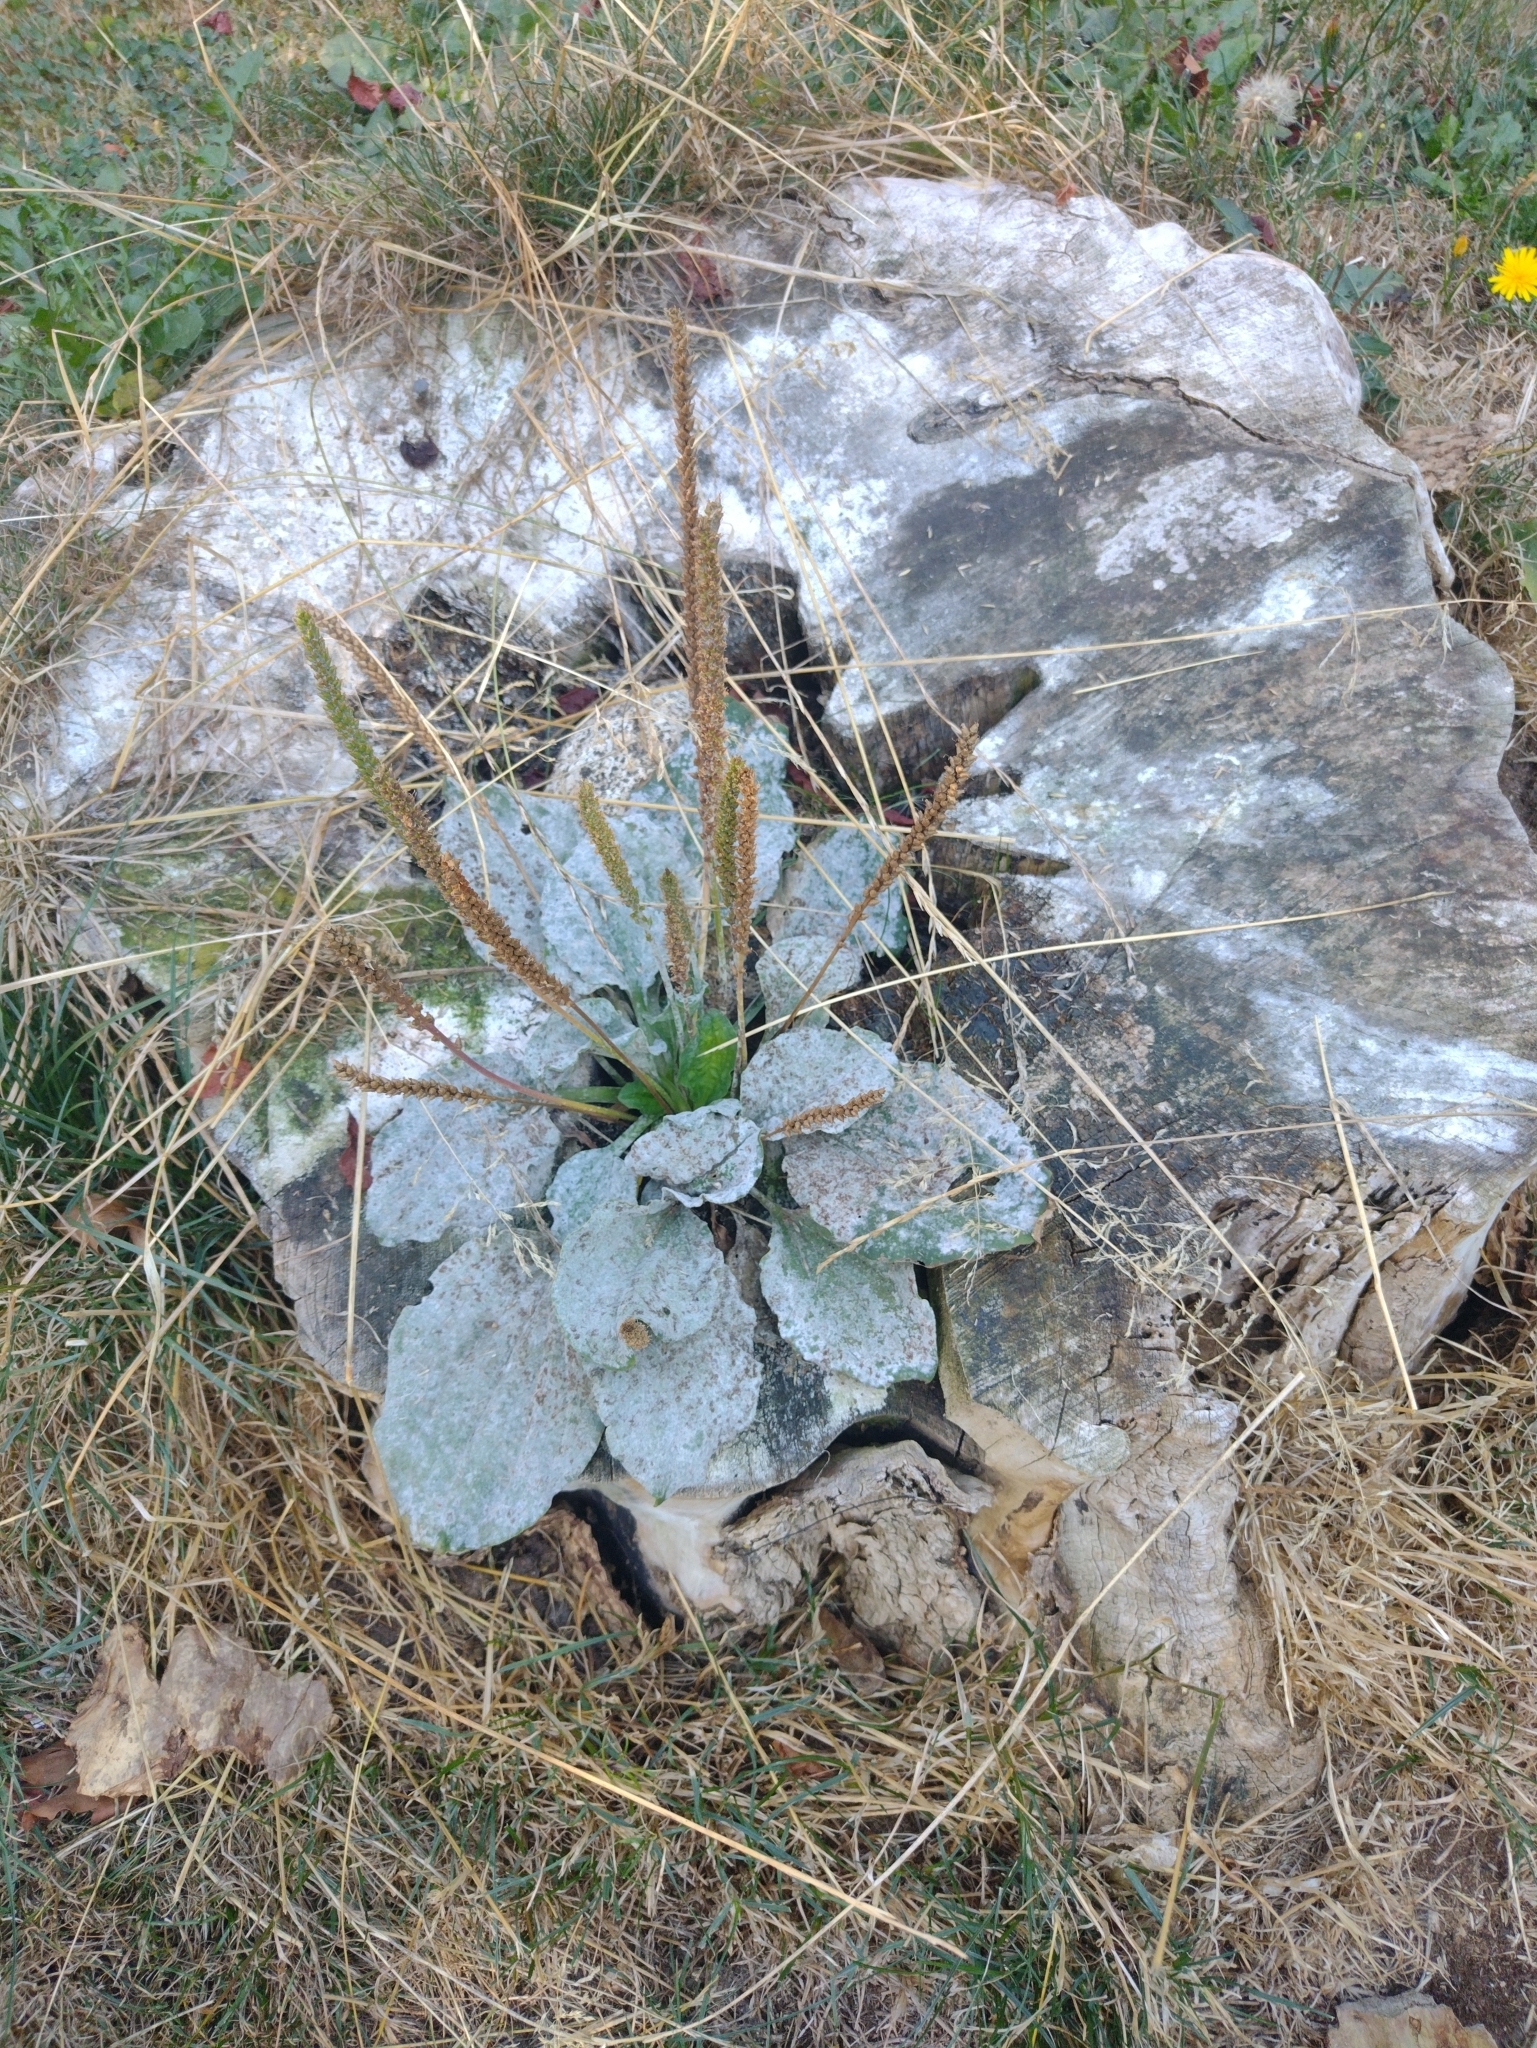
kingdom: Fungi
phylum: Ascomycota
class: Leotiomycetes
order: Helotiales
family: Erysiphaceae
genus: Golovinomyces
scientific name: Golovinomyces sordidus
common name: Plantain mildew
